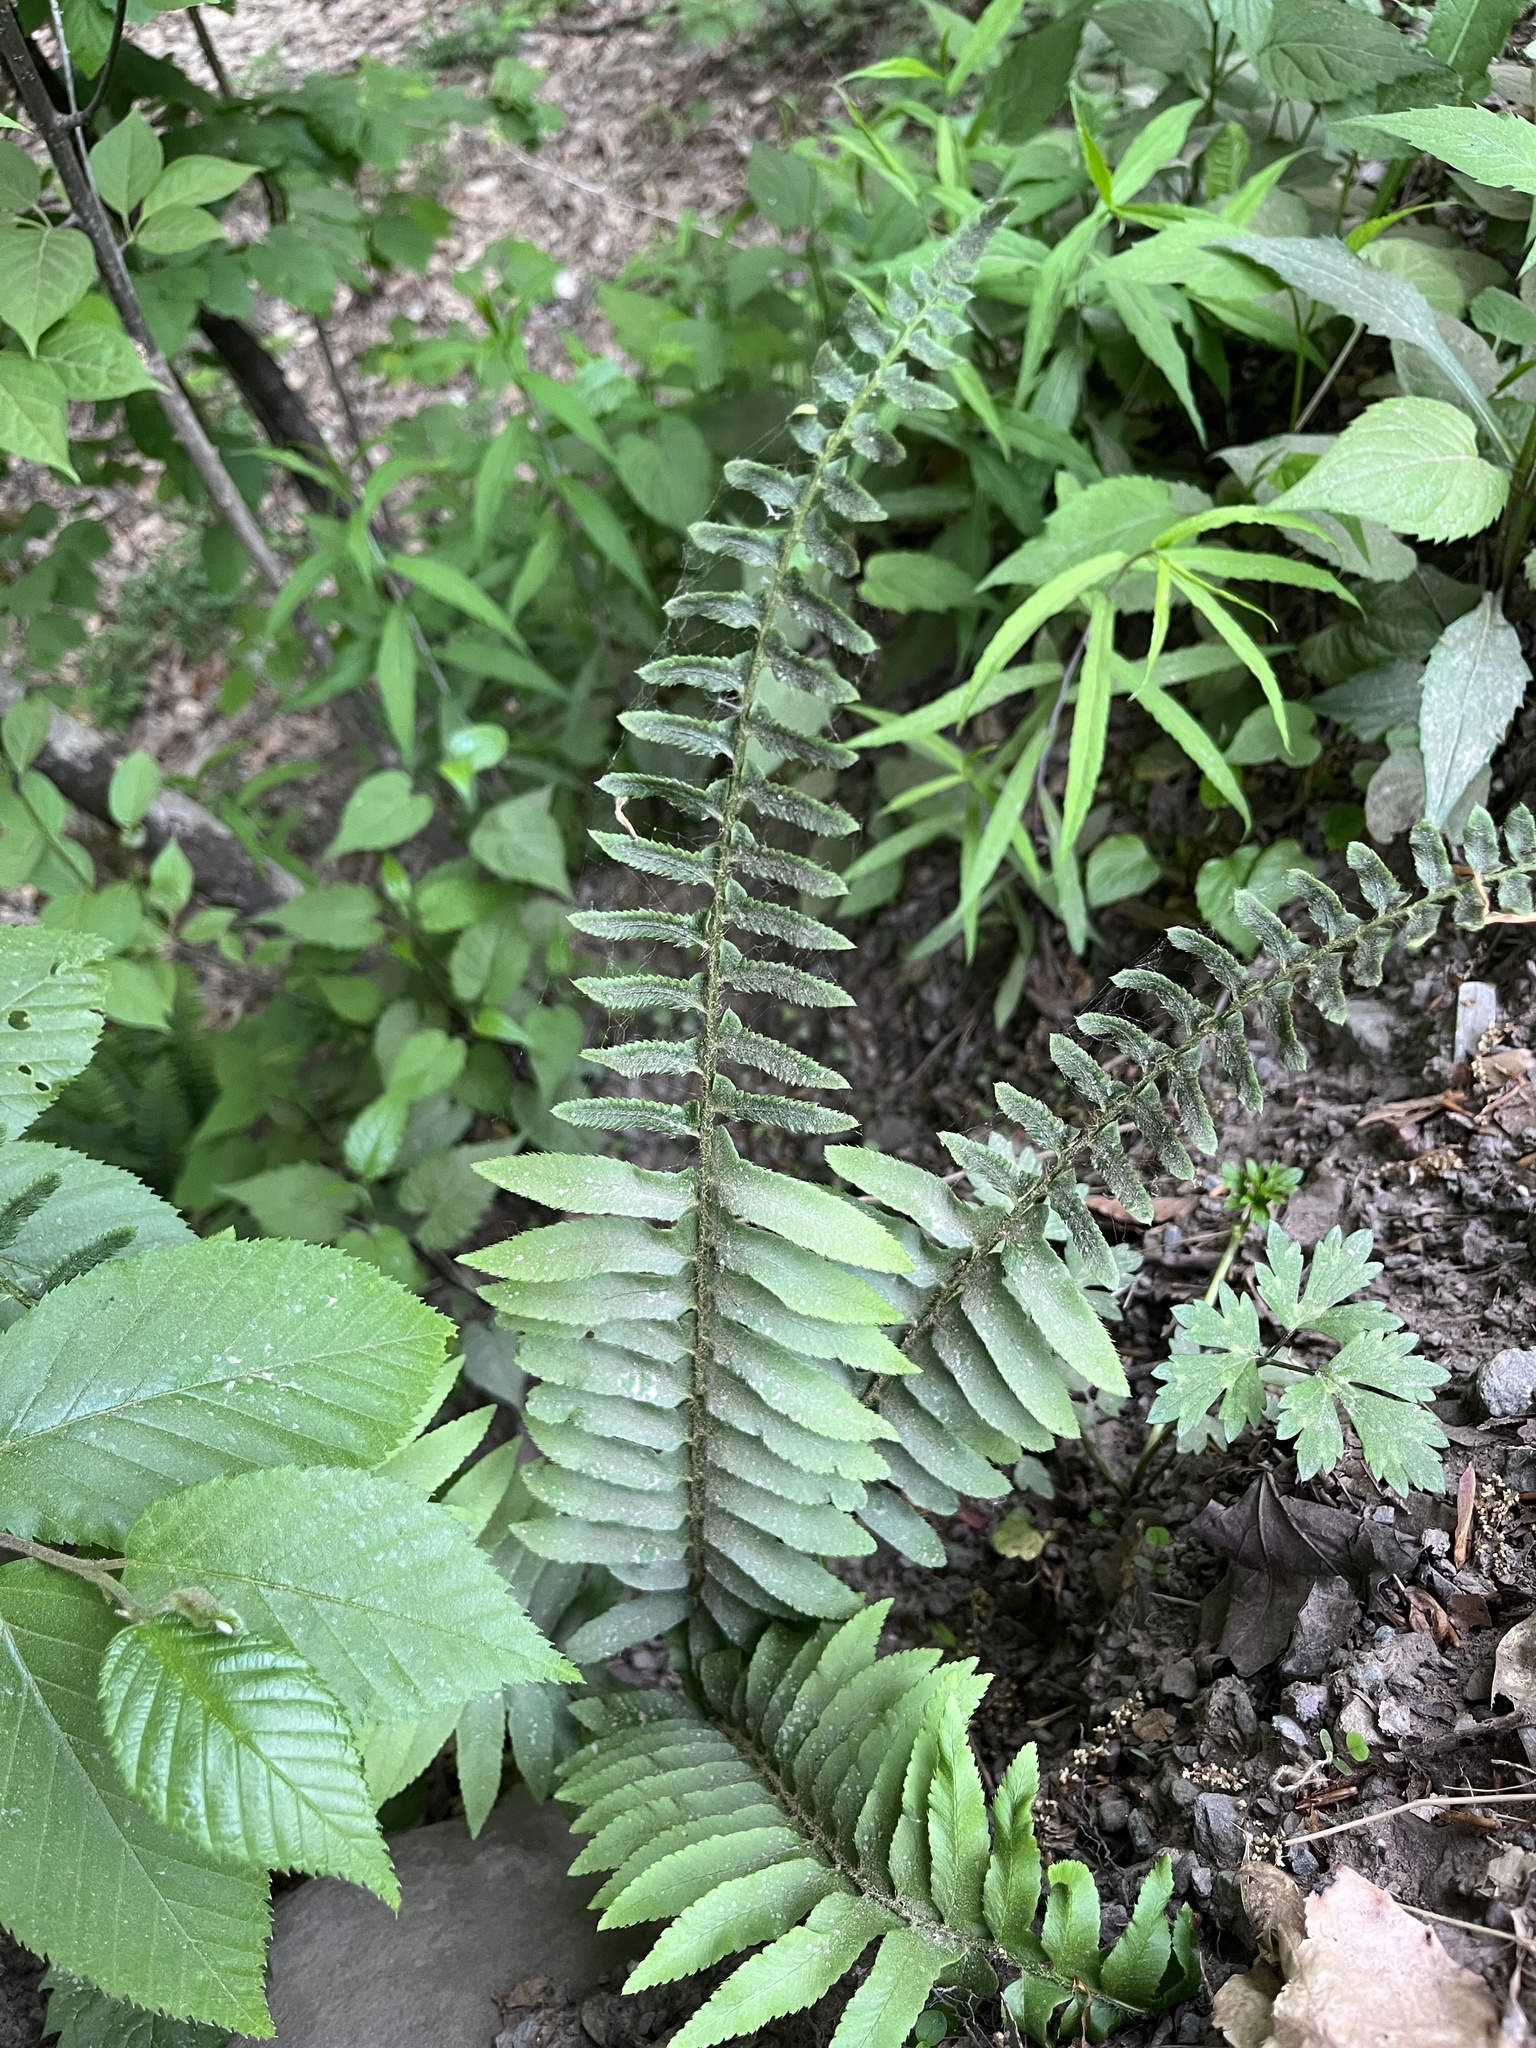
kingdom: Plantae
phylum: Tracheophyta
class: Polypodiopsida
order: Polypodiales
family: Dryopteridaceae
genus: Polystichum
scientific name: Polystichum acrostichoides
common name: Christmas fern
